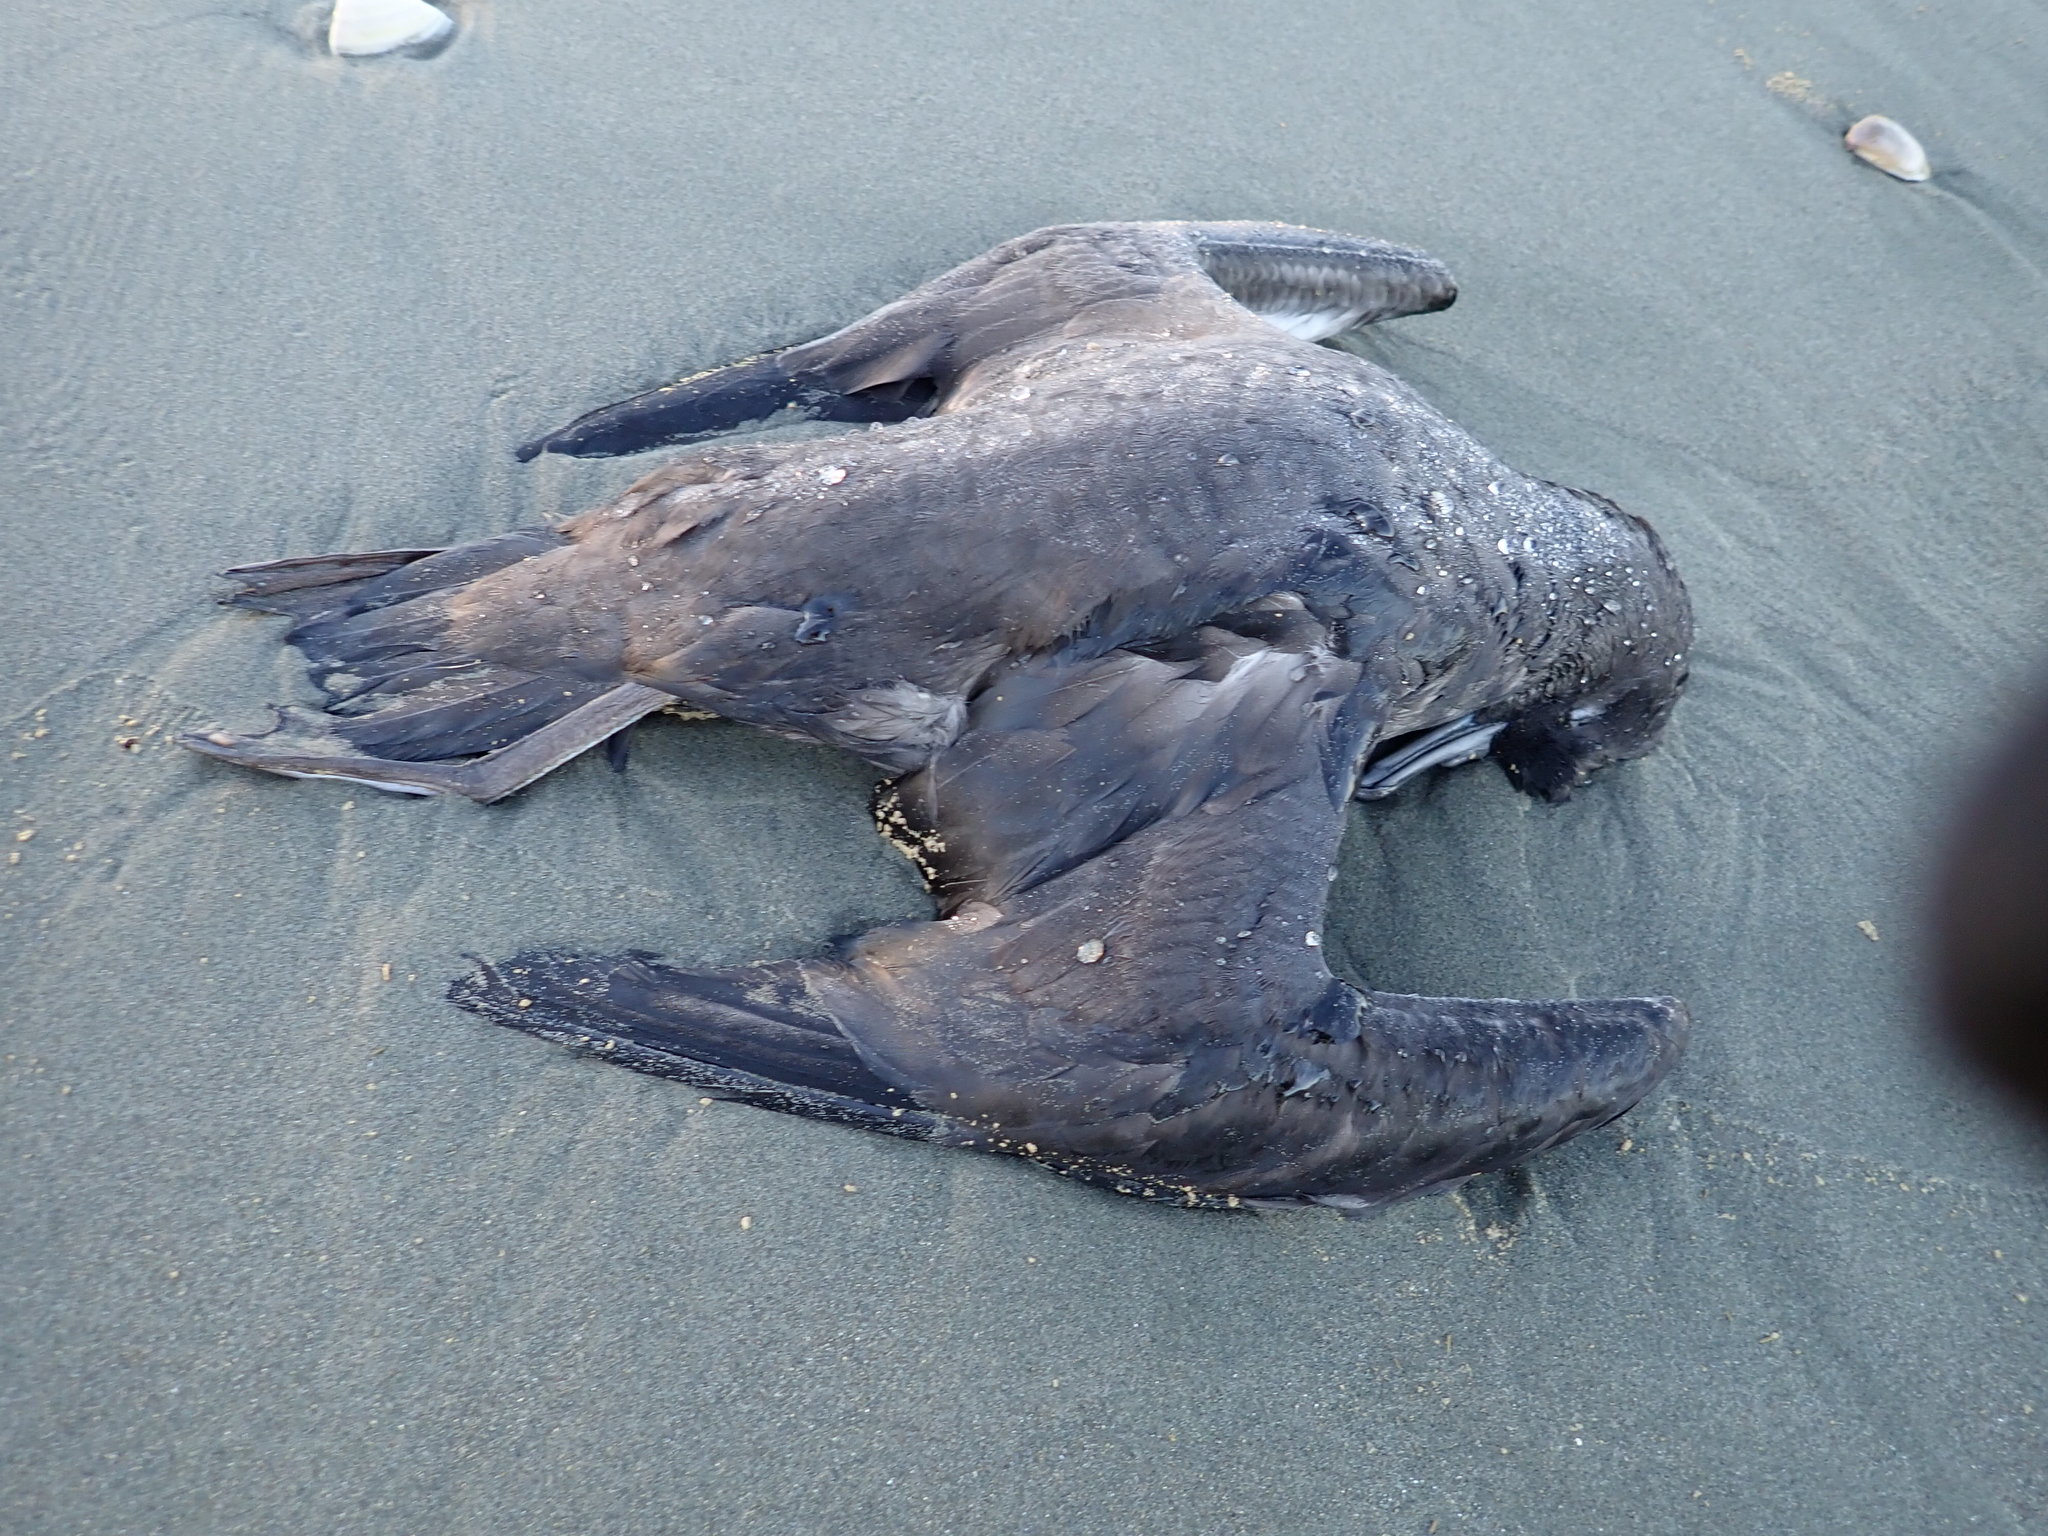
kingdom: Animalia
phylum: Chordata
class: Aves
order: Procellariiformes
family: Procellariidae
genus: Puffinus
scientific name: Puffinus griseus
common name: Sooty shearwater
